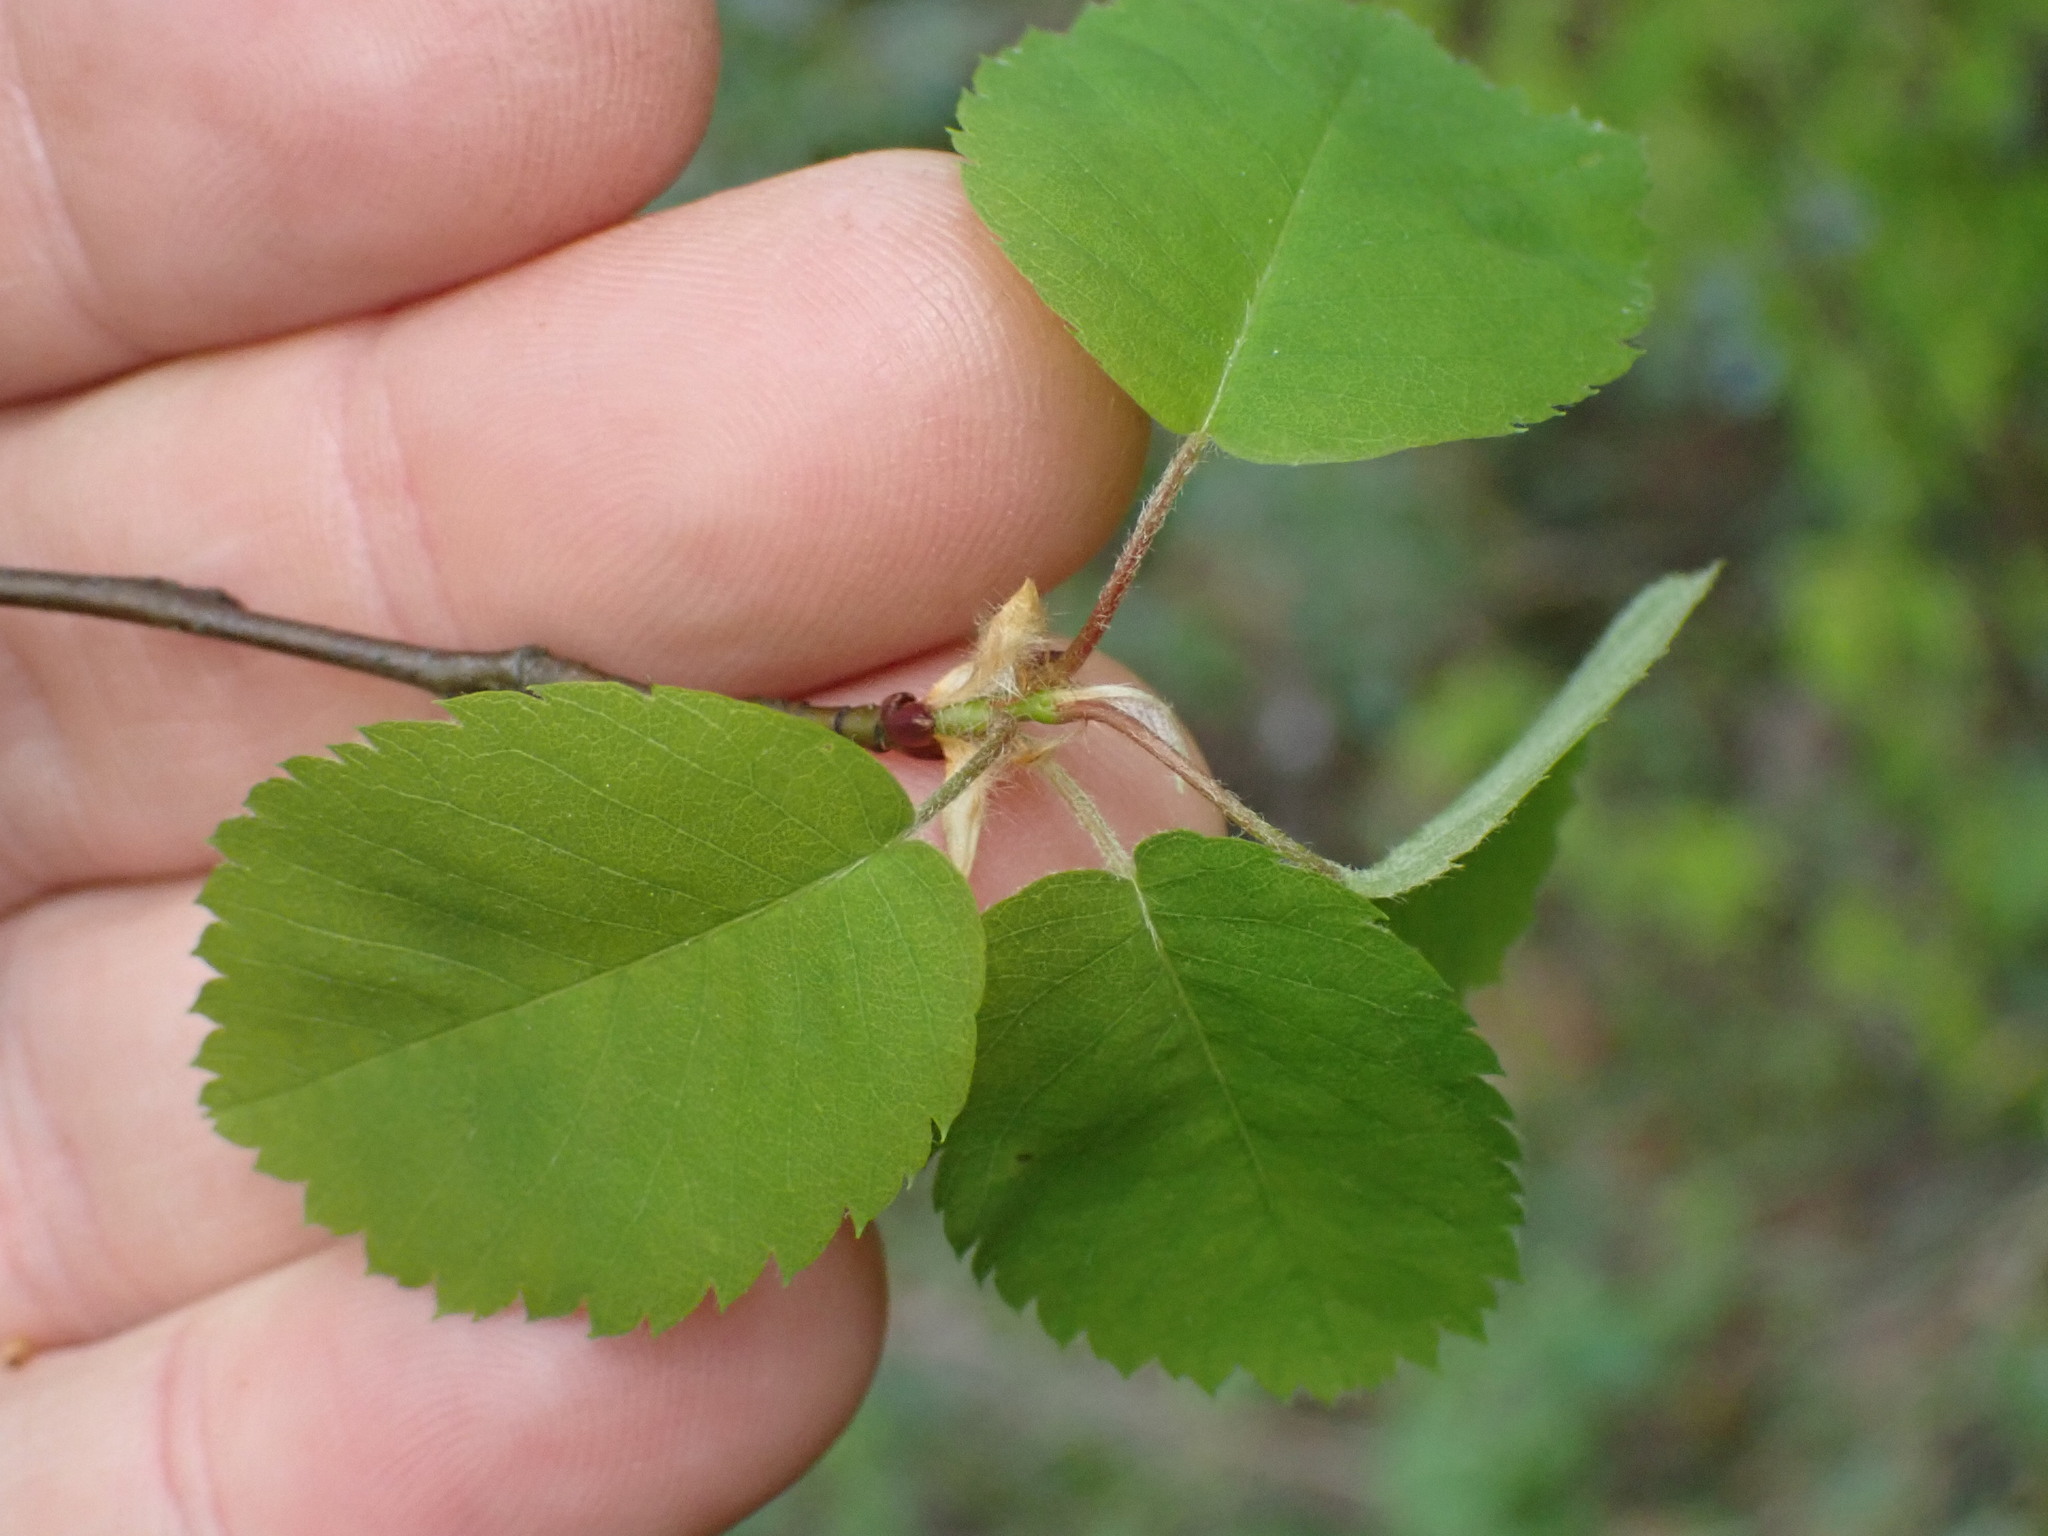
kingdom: Plantae
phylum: Tracheophyta
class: Magnoliopsida
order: Rosales
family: Rosaceae
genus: Amelanchier
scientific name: Amelanchier alnifolia
